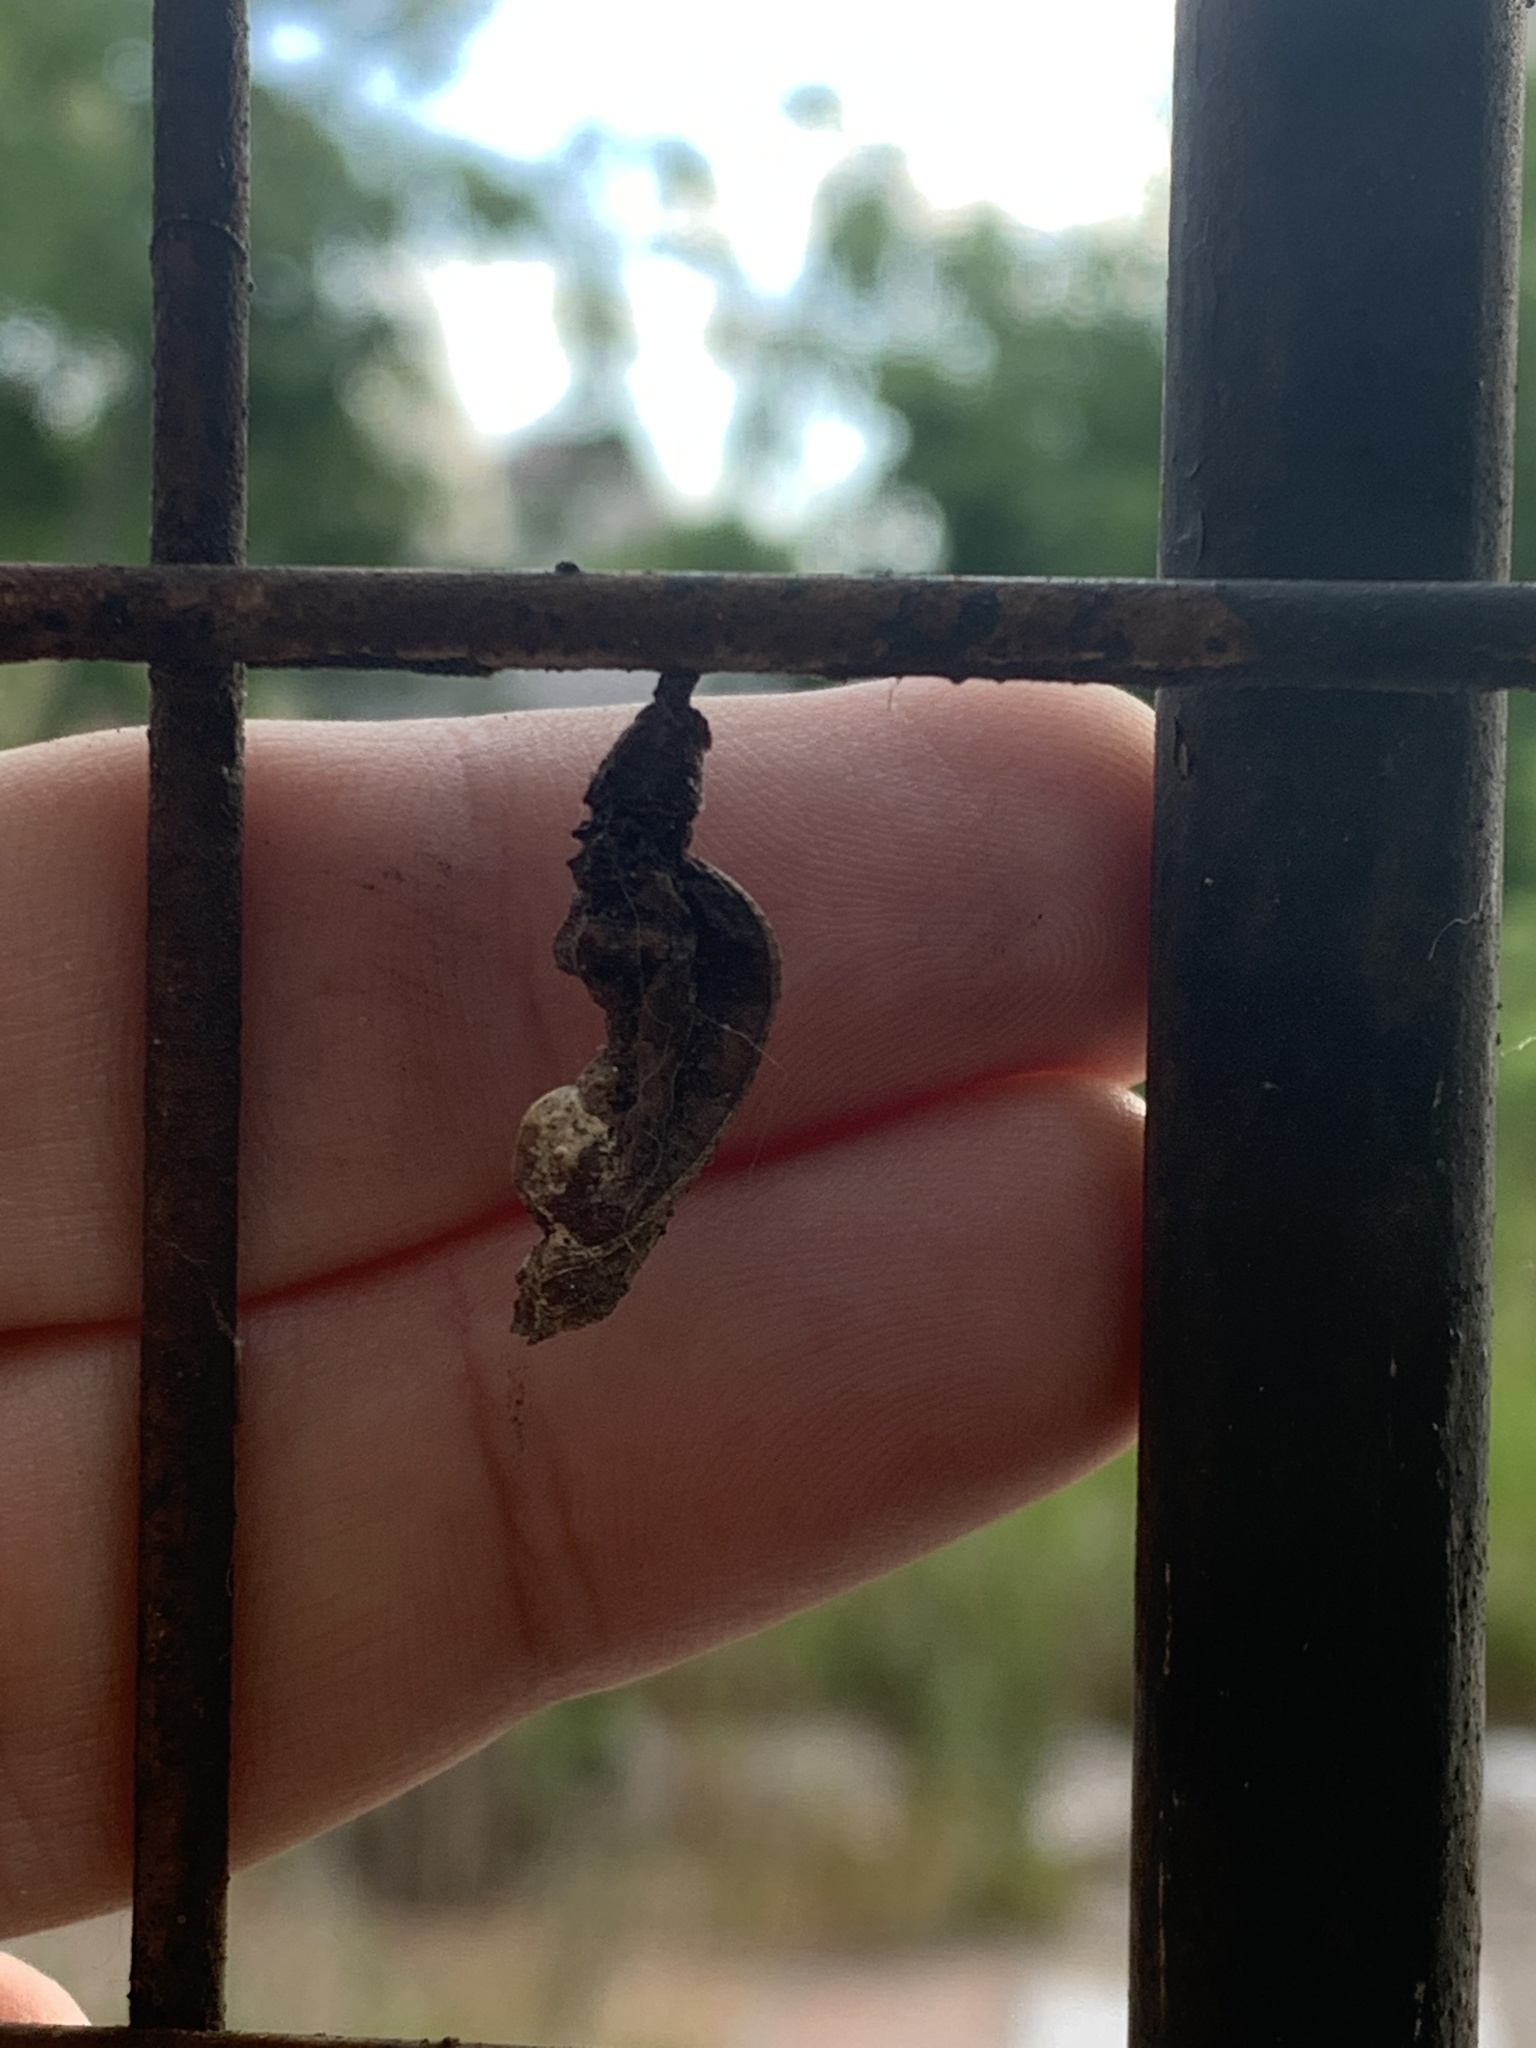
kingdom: Animalia
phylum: Arthropoda
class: Insecta
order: Lepidoptera
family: Nymphalidae
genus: Dione
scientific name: Dione vanillae
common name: Gulf fritillary
